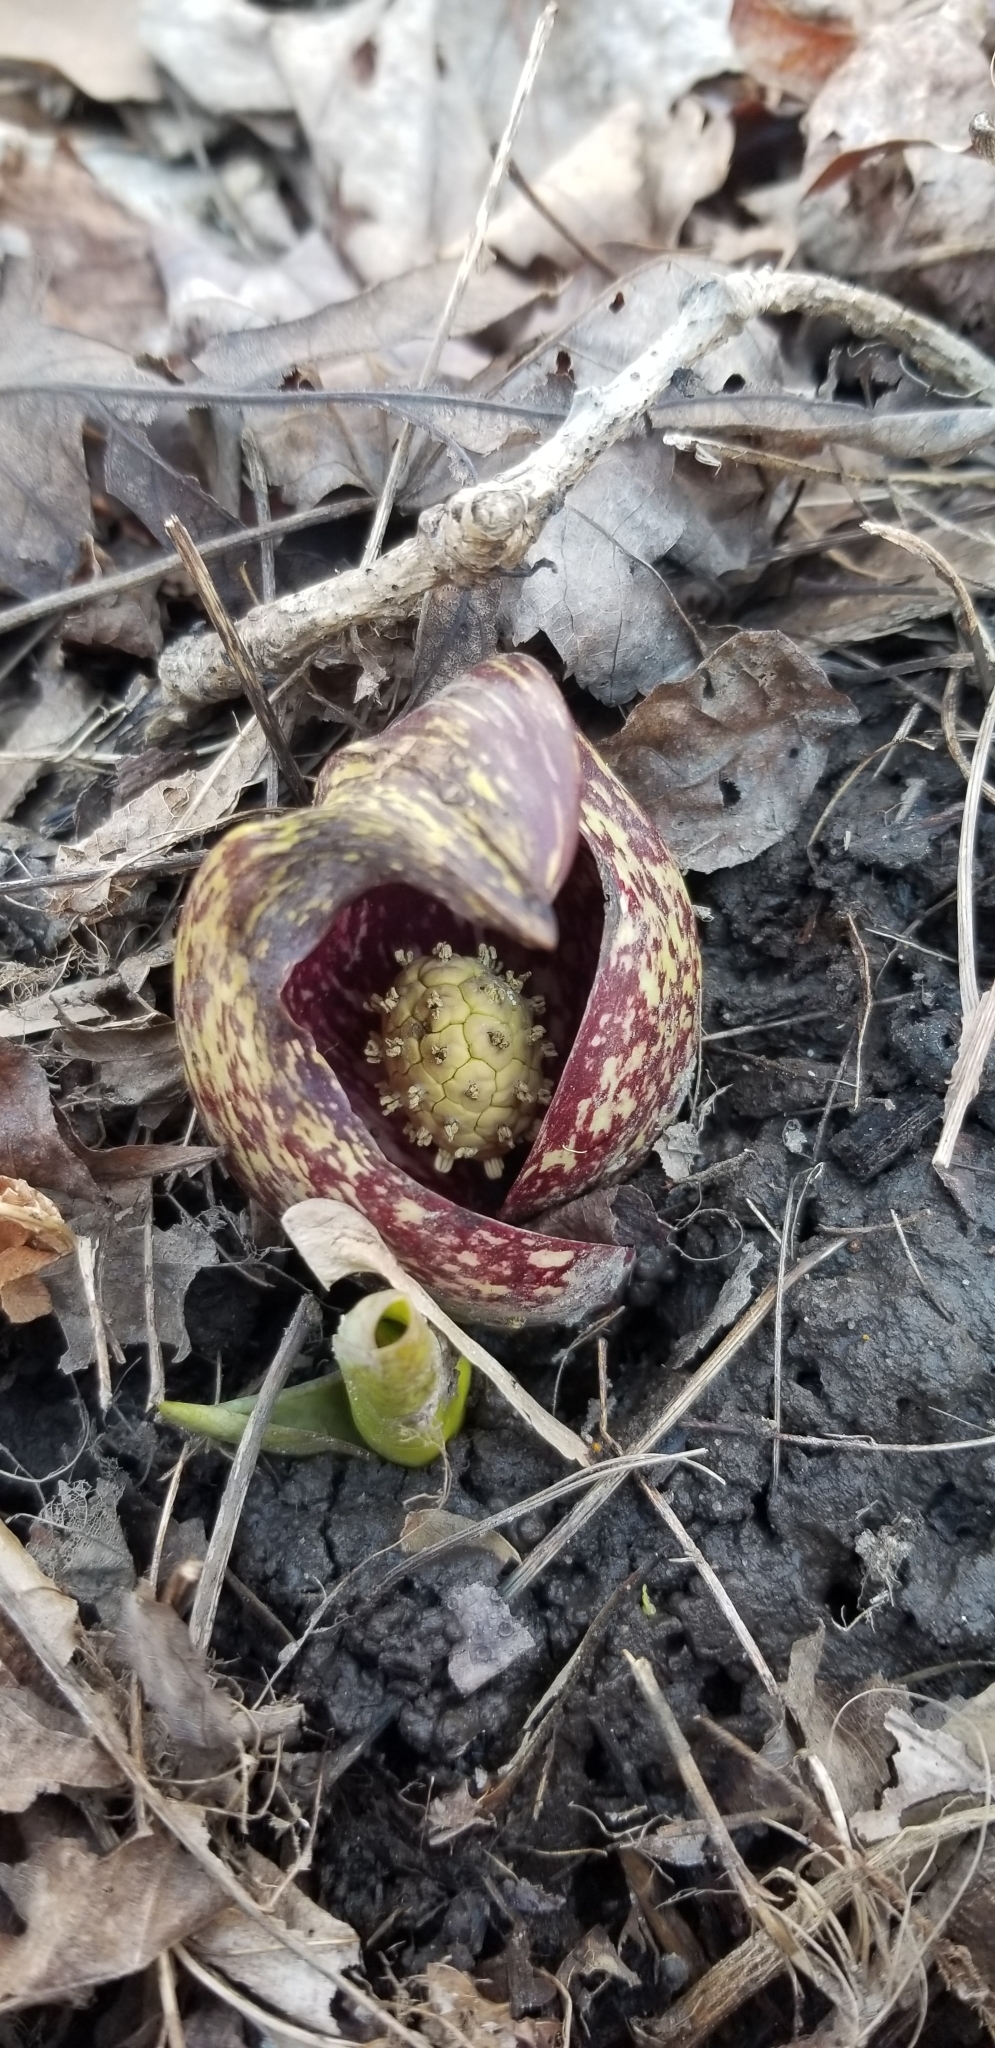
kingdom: Plantae
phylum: Tracheophyta
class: Liliopsida
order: Alismatales
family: Araceae
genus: Symplocarpus
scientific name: Symplocarpus foetidus
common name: Eastern skunk cabbage
